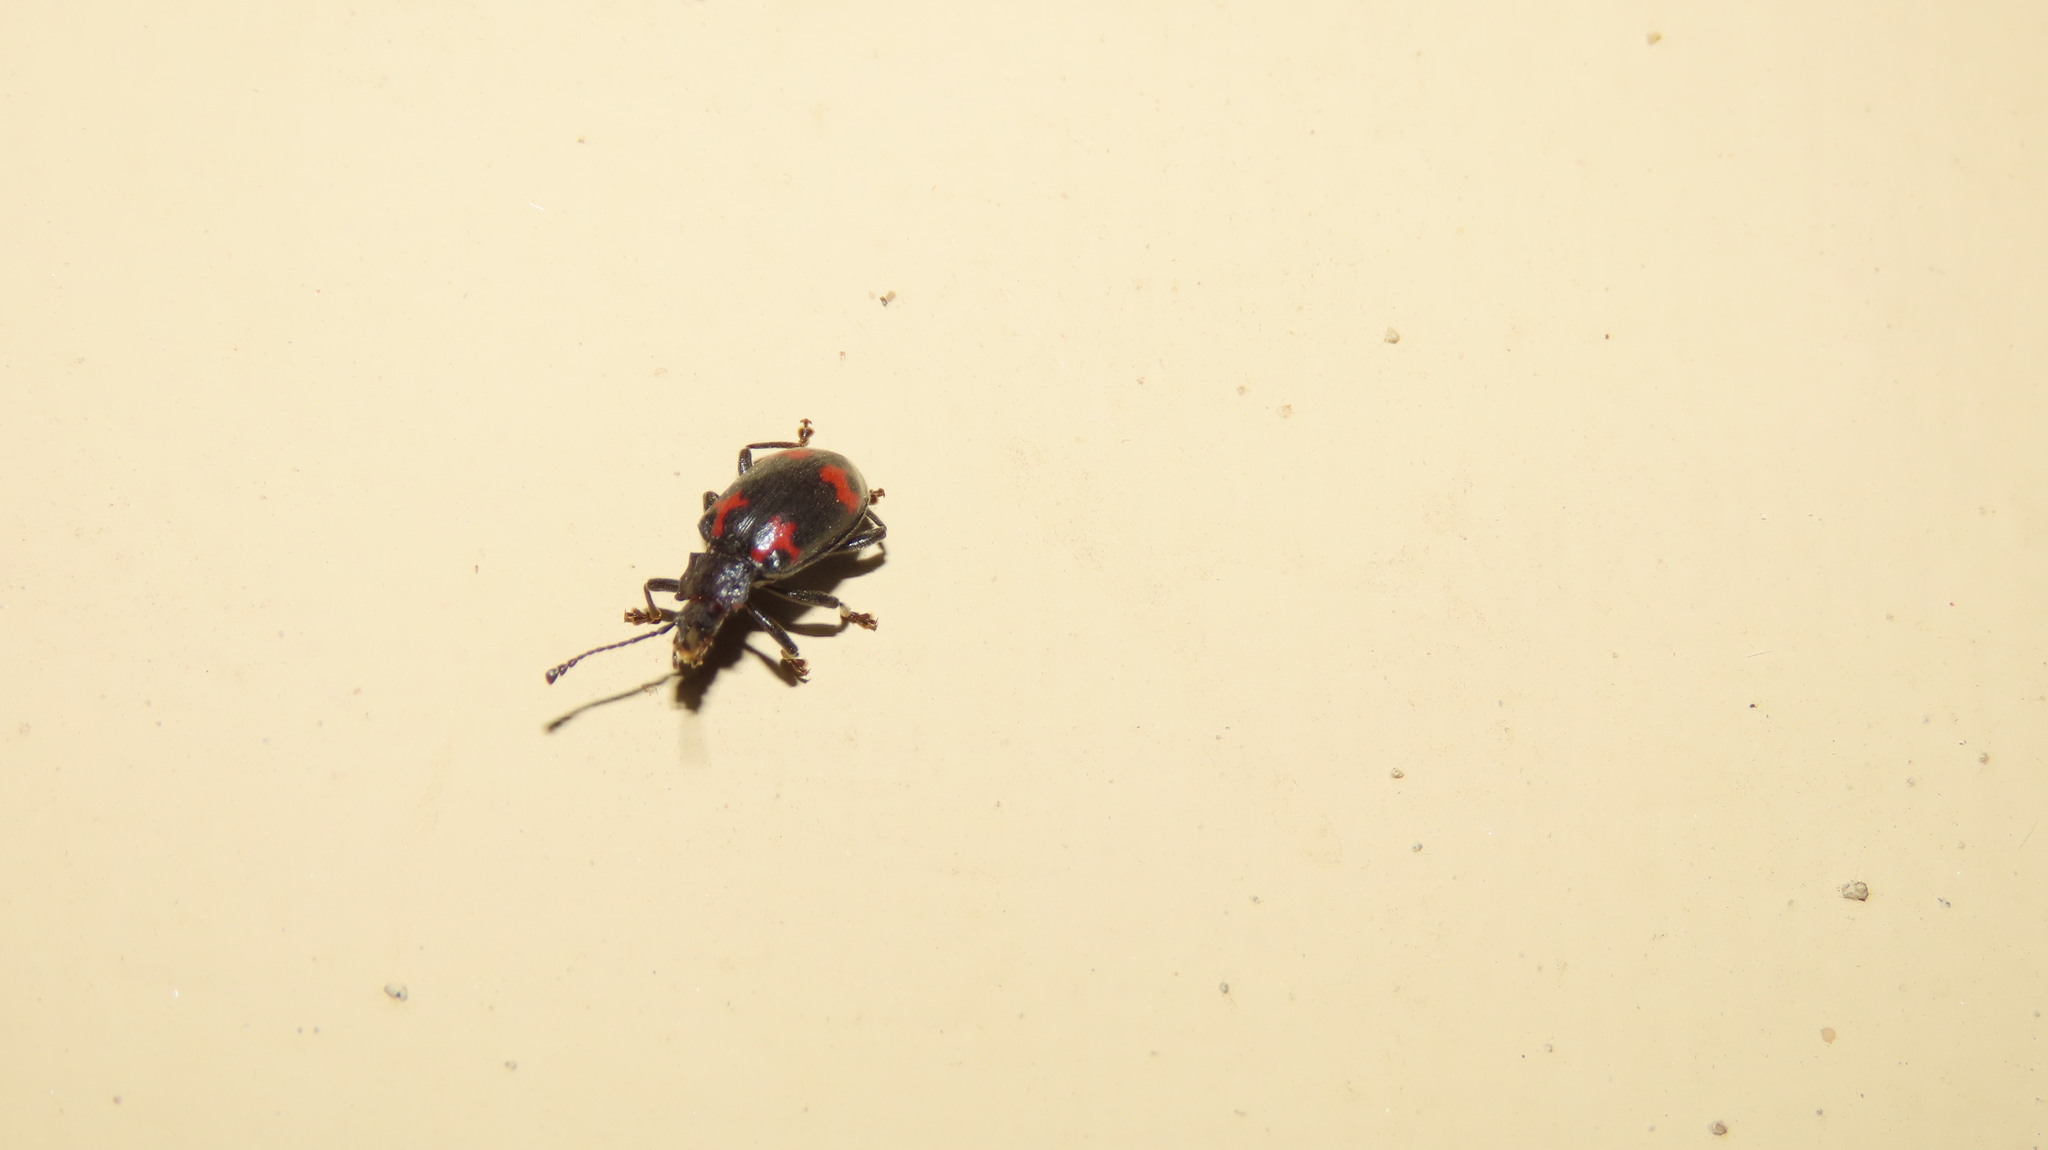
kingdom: Animalia
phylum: Arthropoda
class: Insecta
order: Coleoptera
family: Endomychidae
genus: Parindalmus
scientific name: Parindalmus
